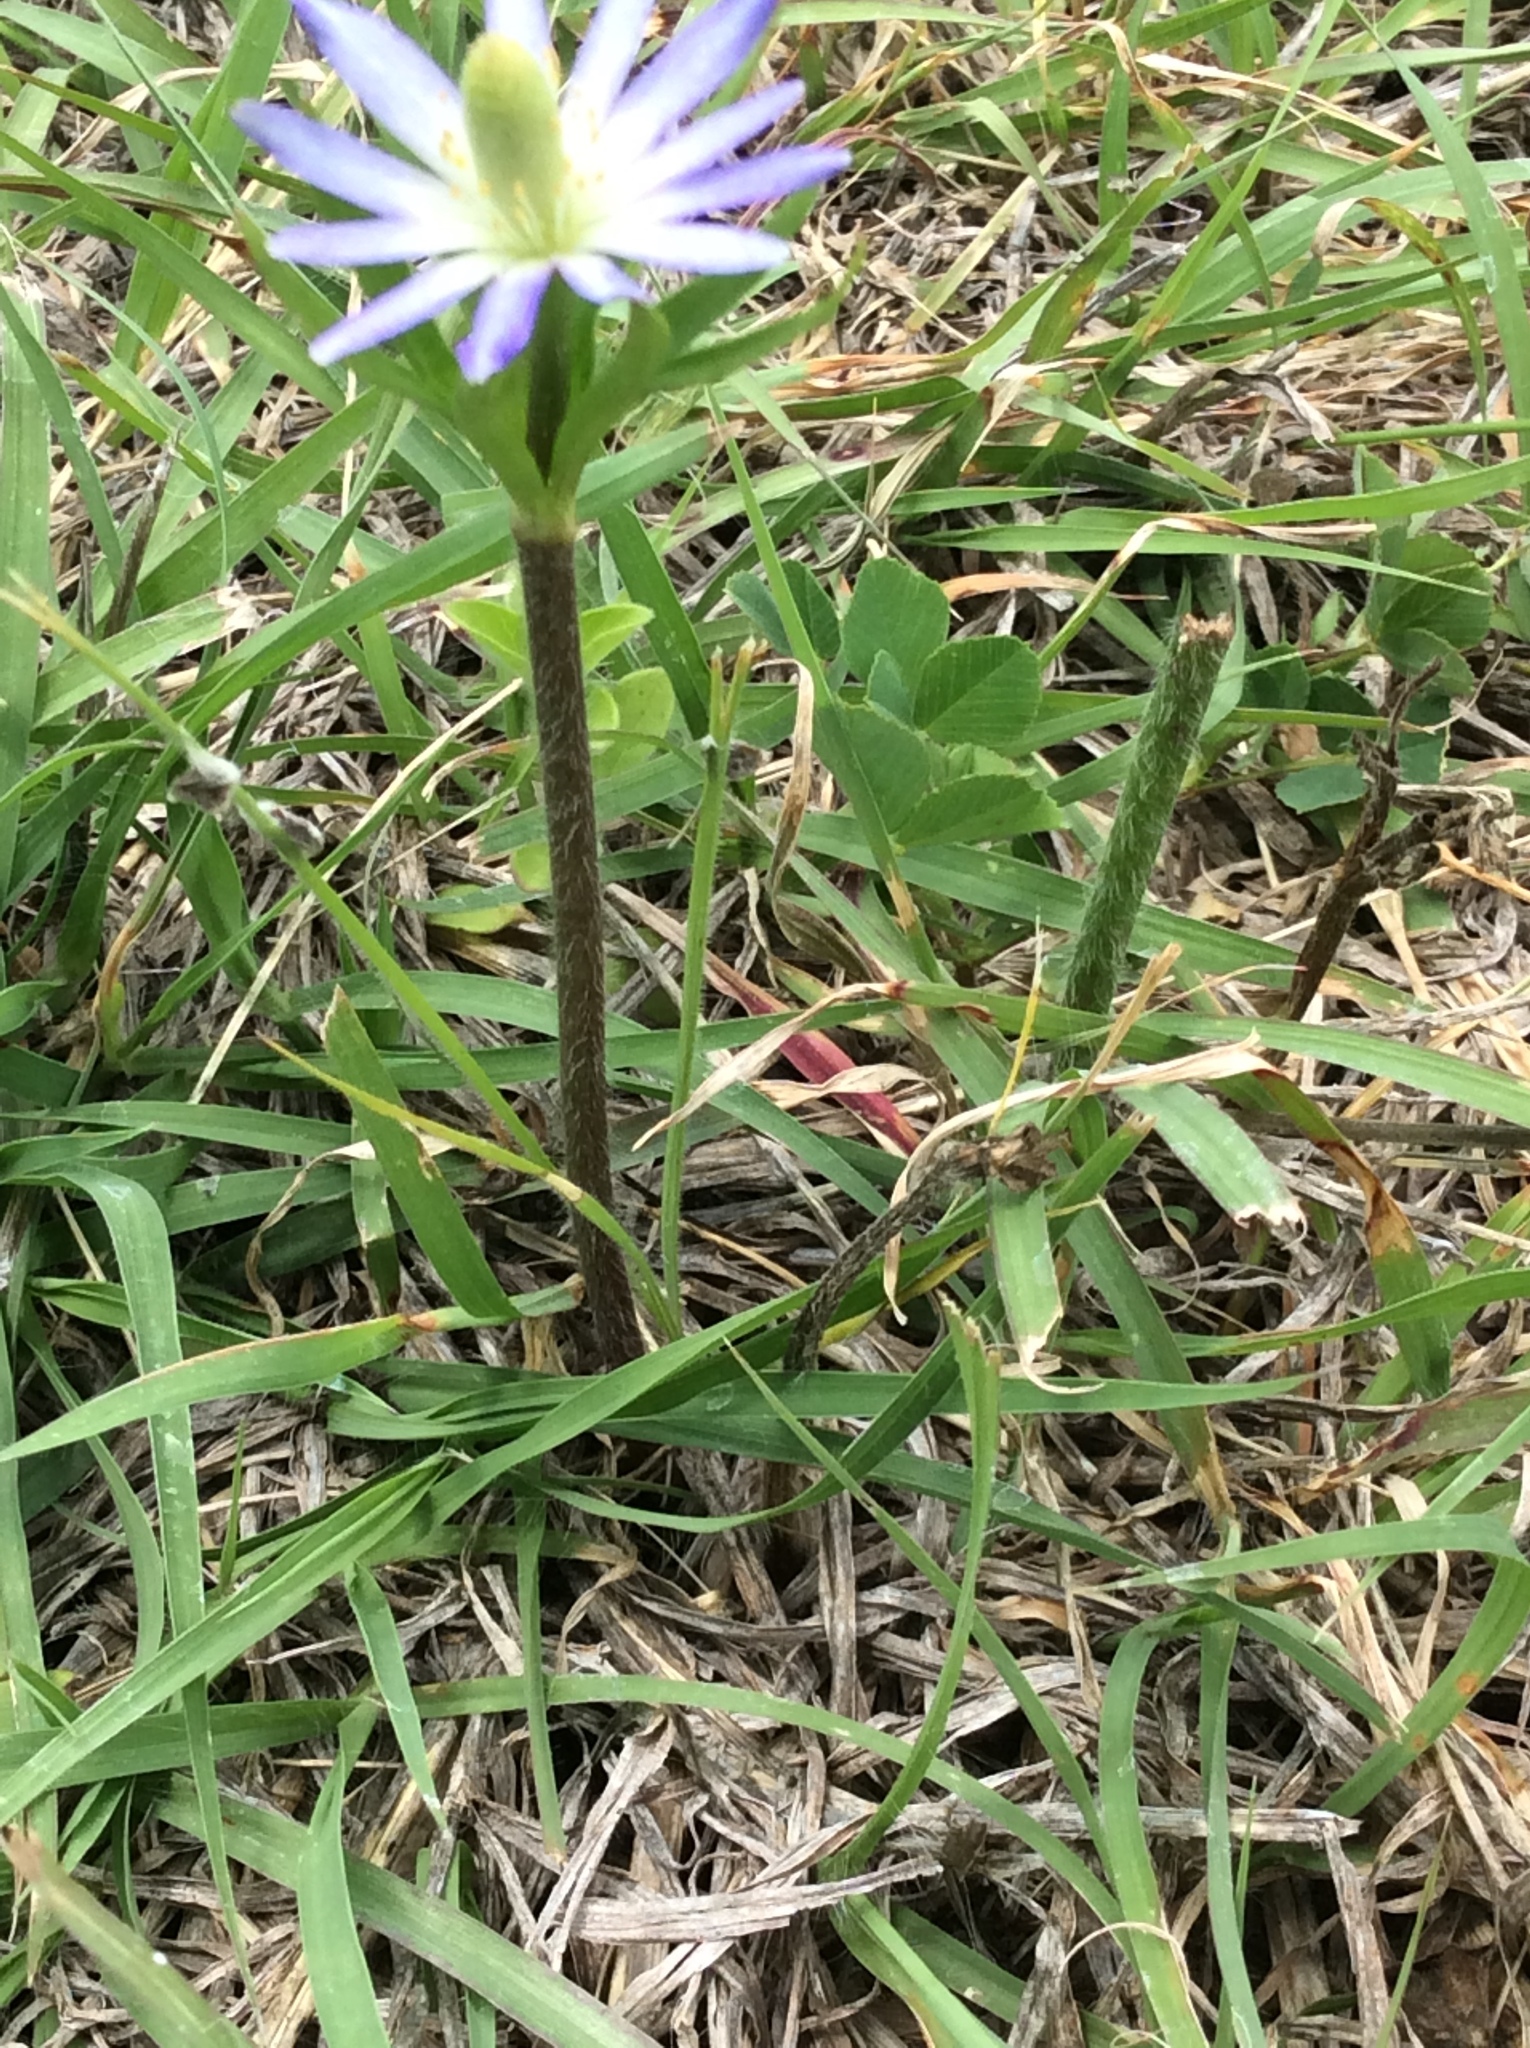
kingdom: Plantae
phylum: Tracheophyta
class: Magnoliopsida
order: Ranunculales
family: Ranunculaceae
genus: Anemone
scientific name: Anemone berlandieri
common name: Ten-petal anemone
